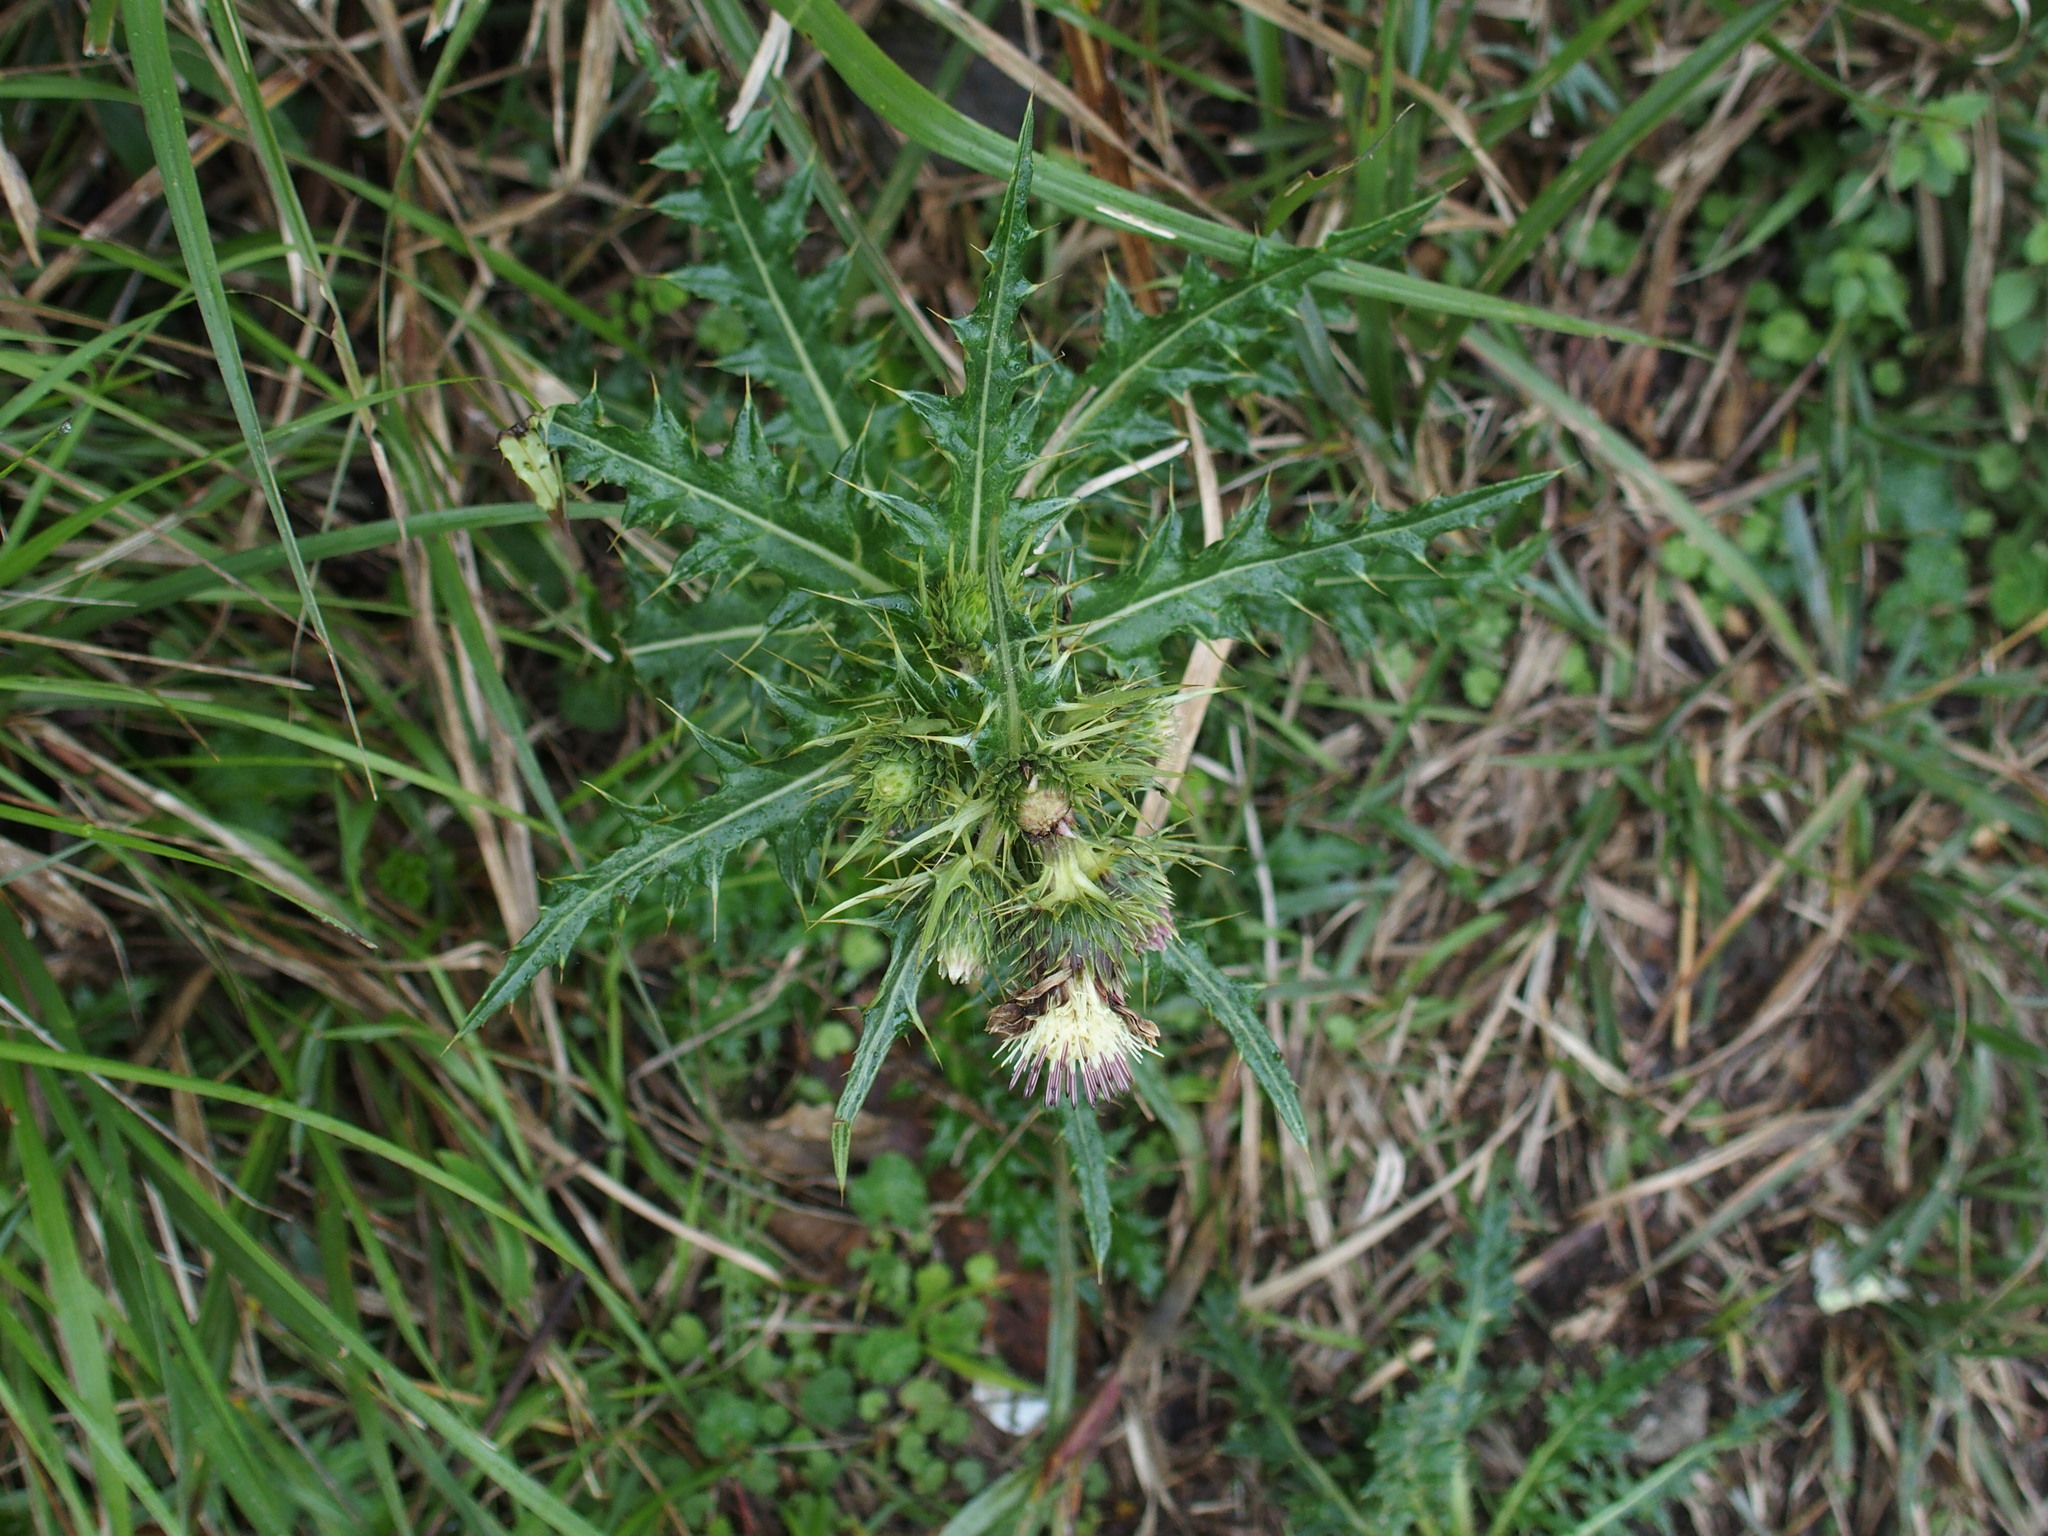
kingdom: Plantae
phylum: Tracheophyta
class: Magnoliopsida
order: Asterales
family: Asteraceae
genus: Cirsium
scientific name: Cirsium arisanense
